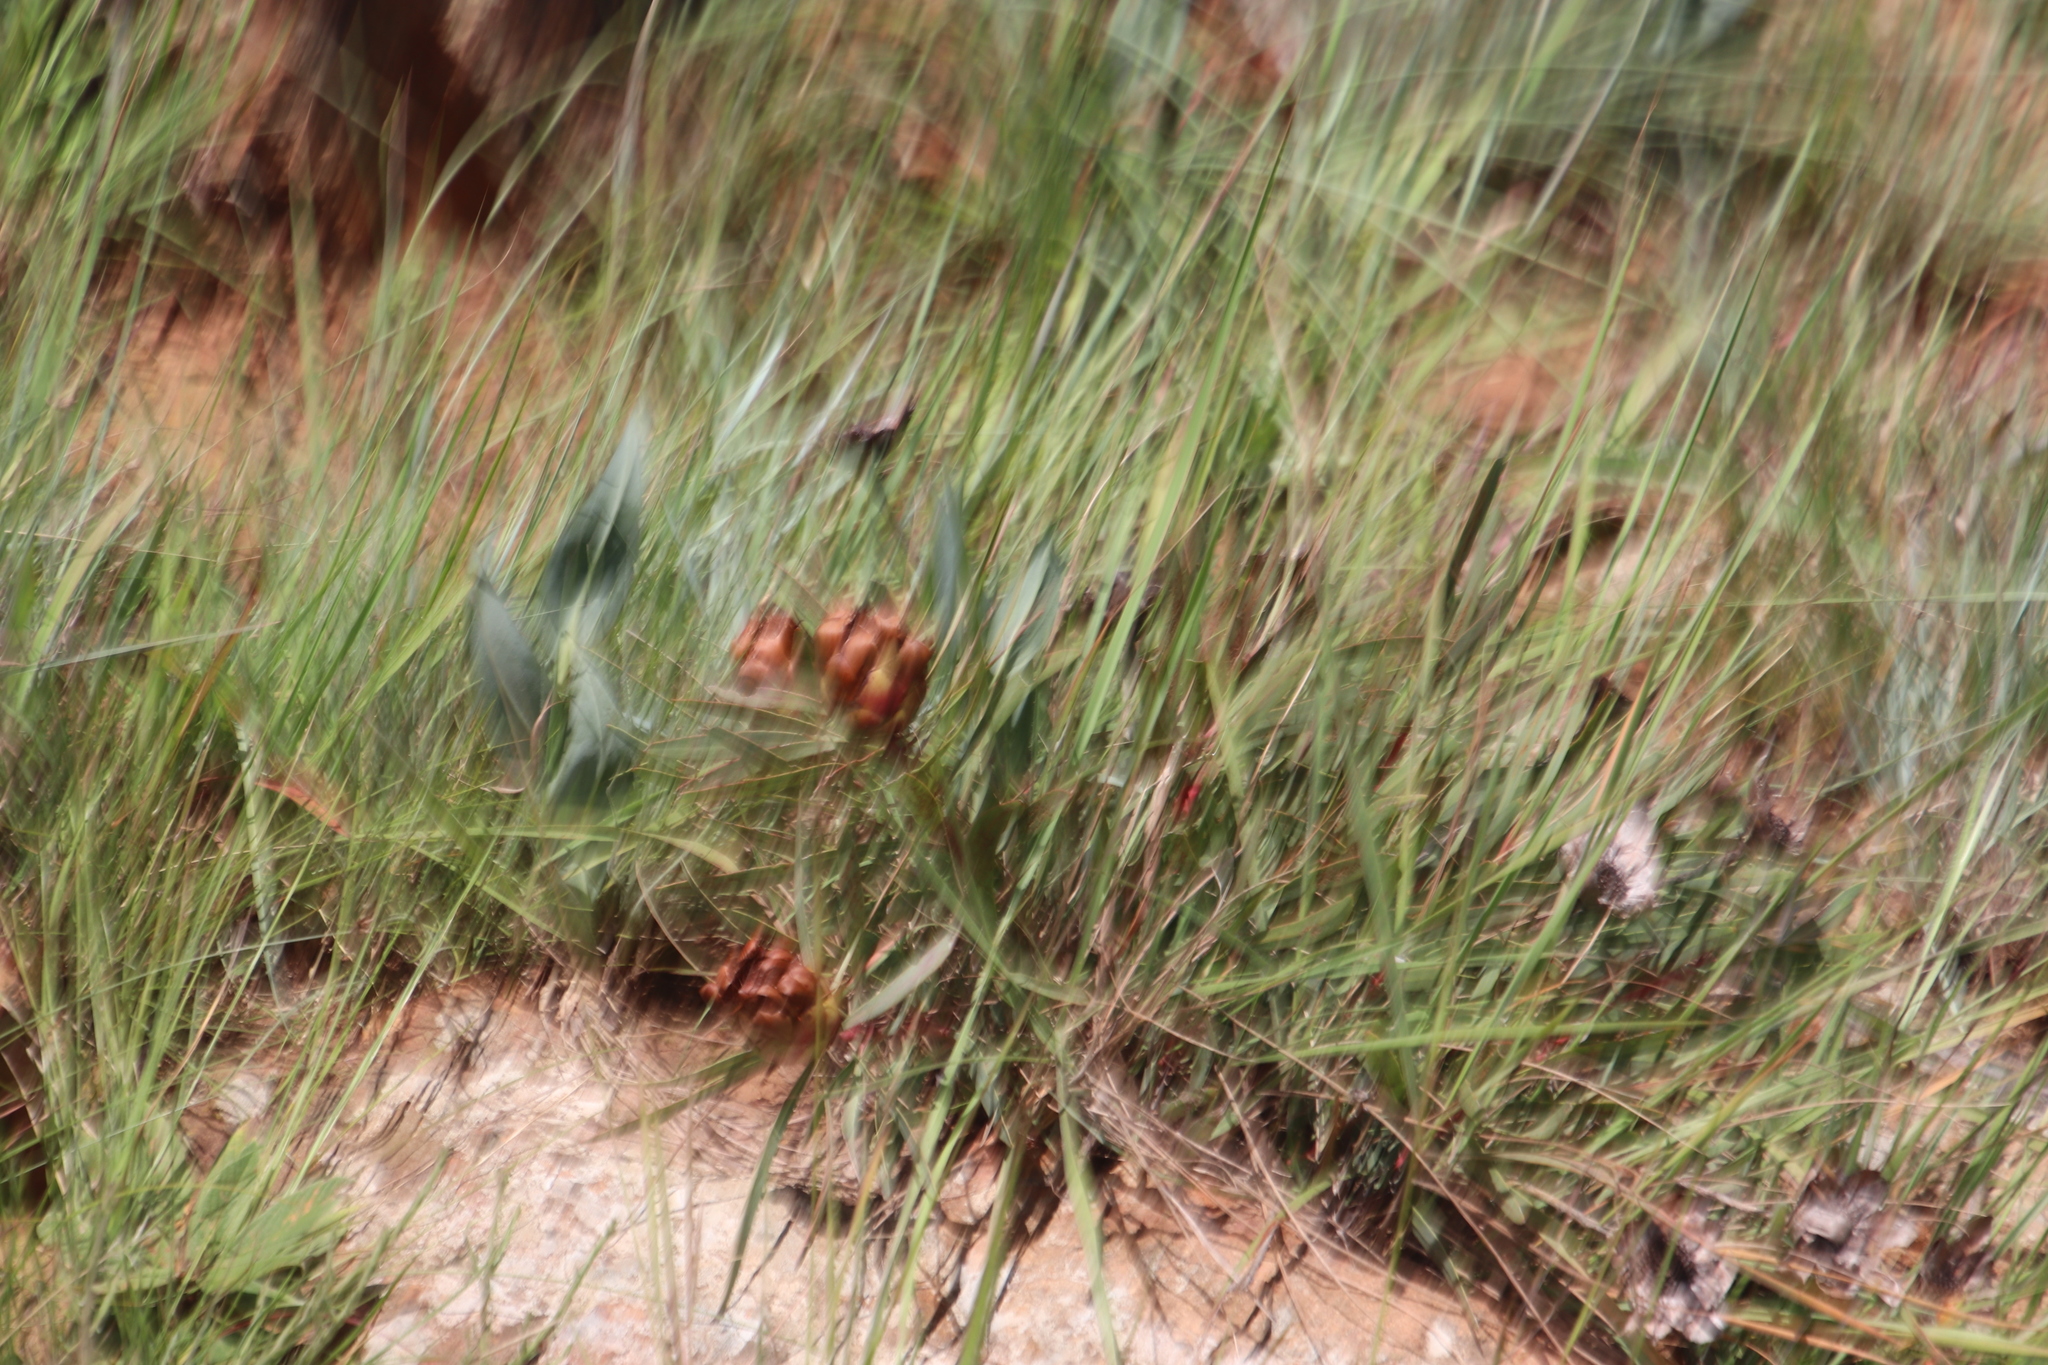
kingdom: Plantae
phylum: Tracheophyta
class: Magnoliopsida
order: Proteales
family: Proteaceae
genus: Protea
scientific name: Protea simplex
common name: Dwarf grassveld sugarbush
